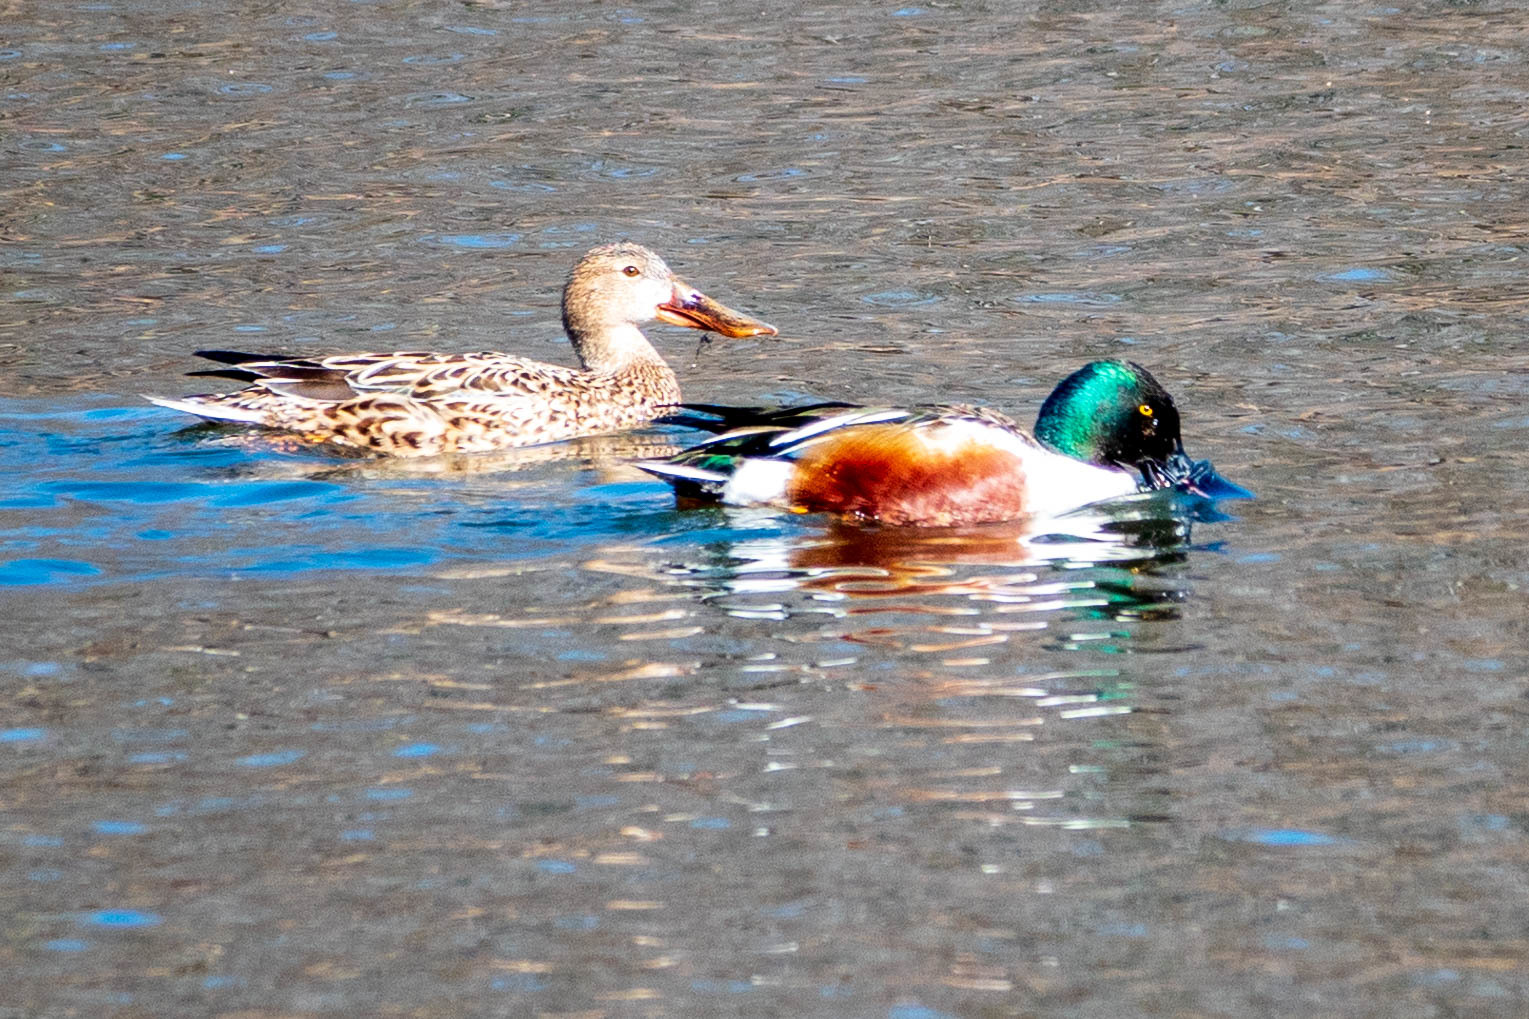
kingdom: Animalia
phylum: Chordata
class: Aves
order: Anseriformes
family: Anatidae
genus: Spatula
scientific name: Spatula clypeata
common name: Northern shoveler
